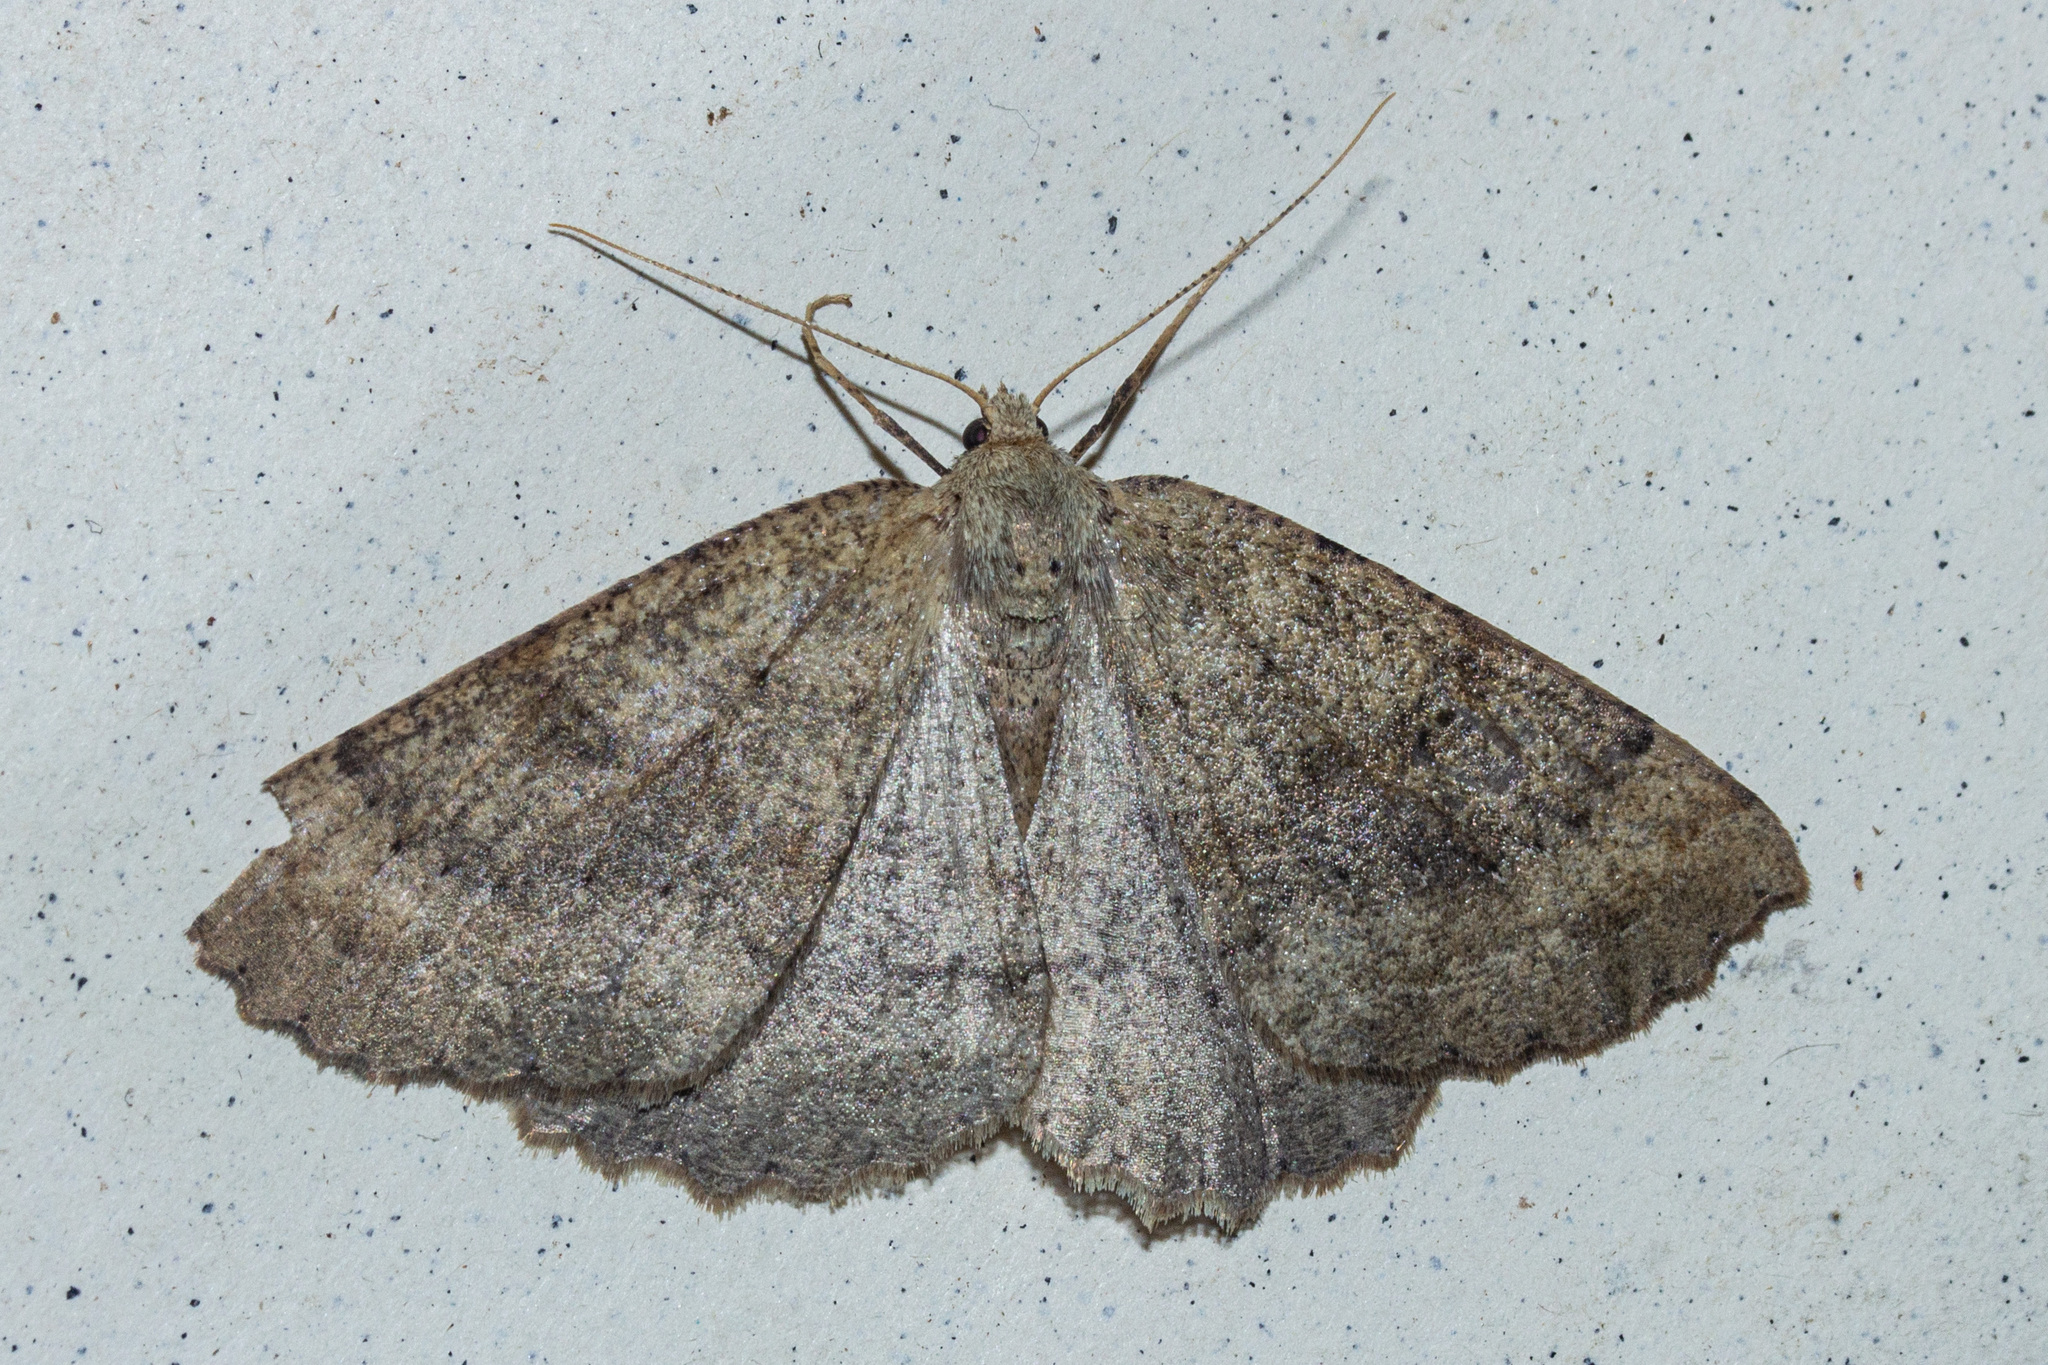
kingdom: Animalia
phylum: Arthropoda
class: Insecta
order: Lepidoptera
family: Geometridae
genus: Cleora
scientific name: Cleora scriptaria
